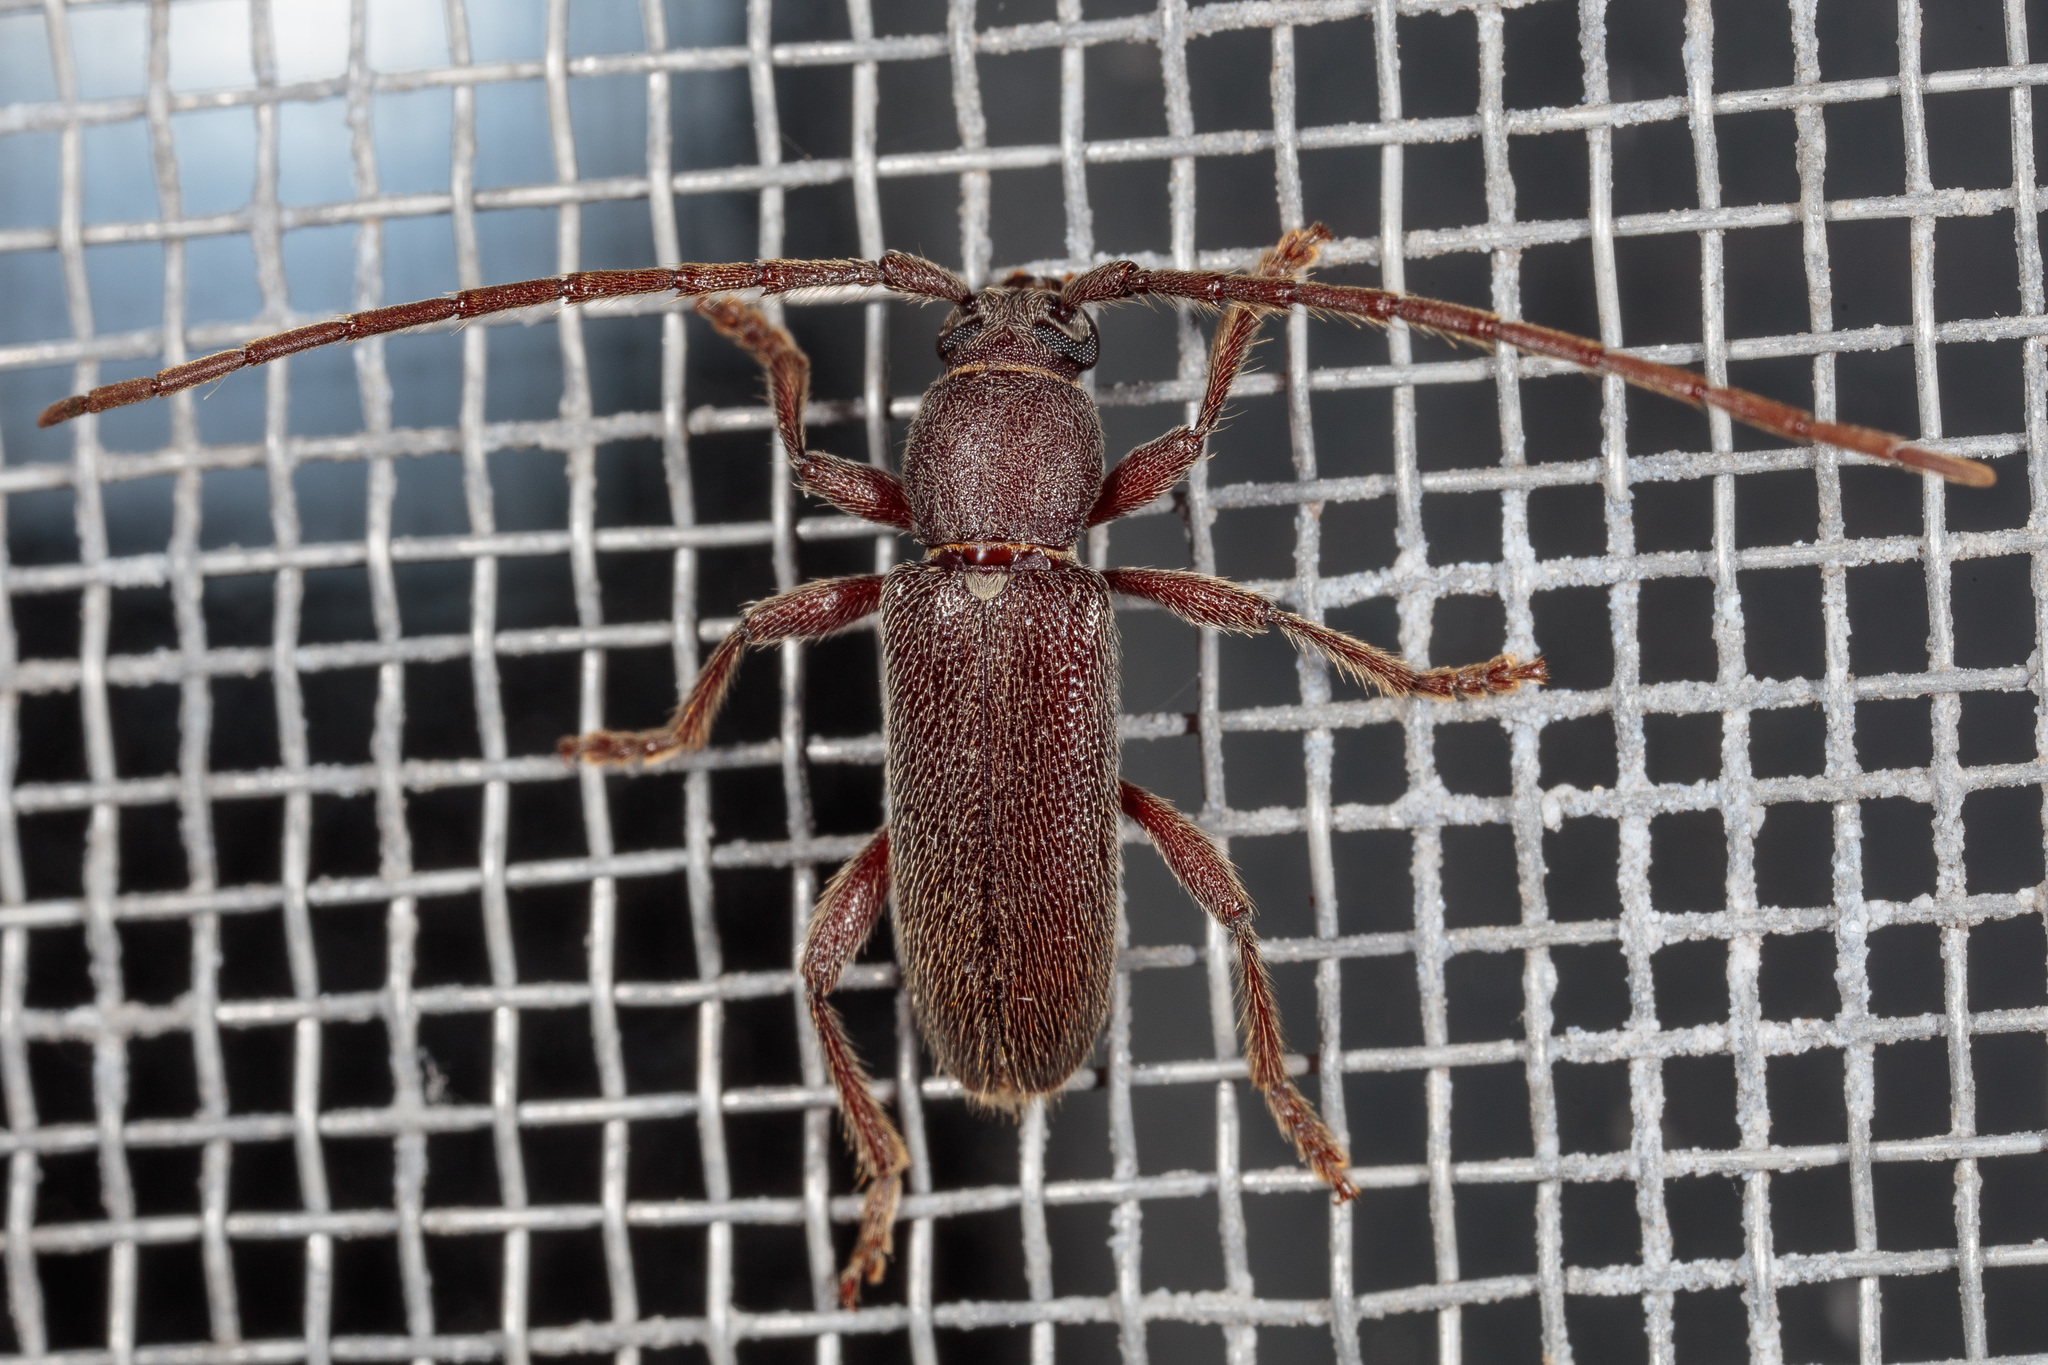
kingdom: Animalia
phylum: Arthropoda
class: Insecta
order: Coleoptera
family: Cerambycidae
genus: Anelaphus
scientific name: Anelaphus moestus
